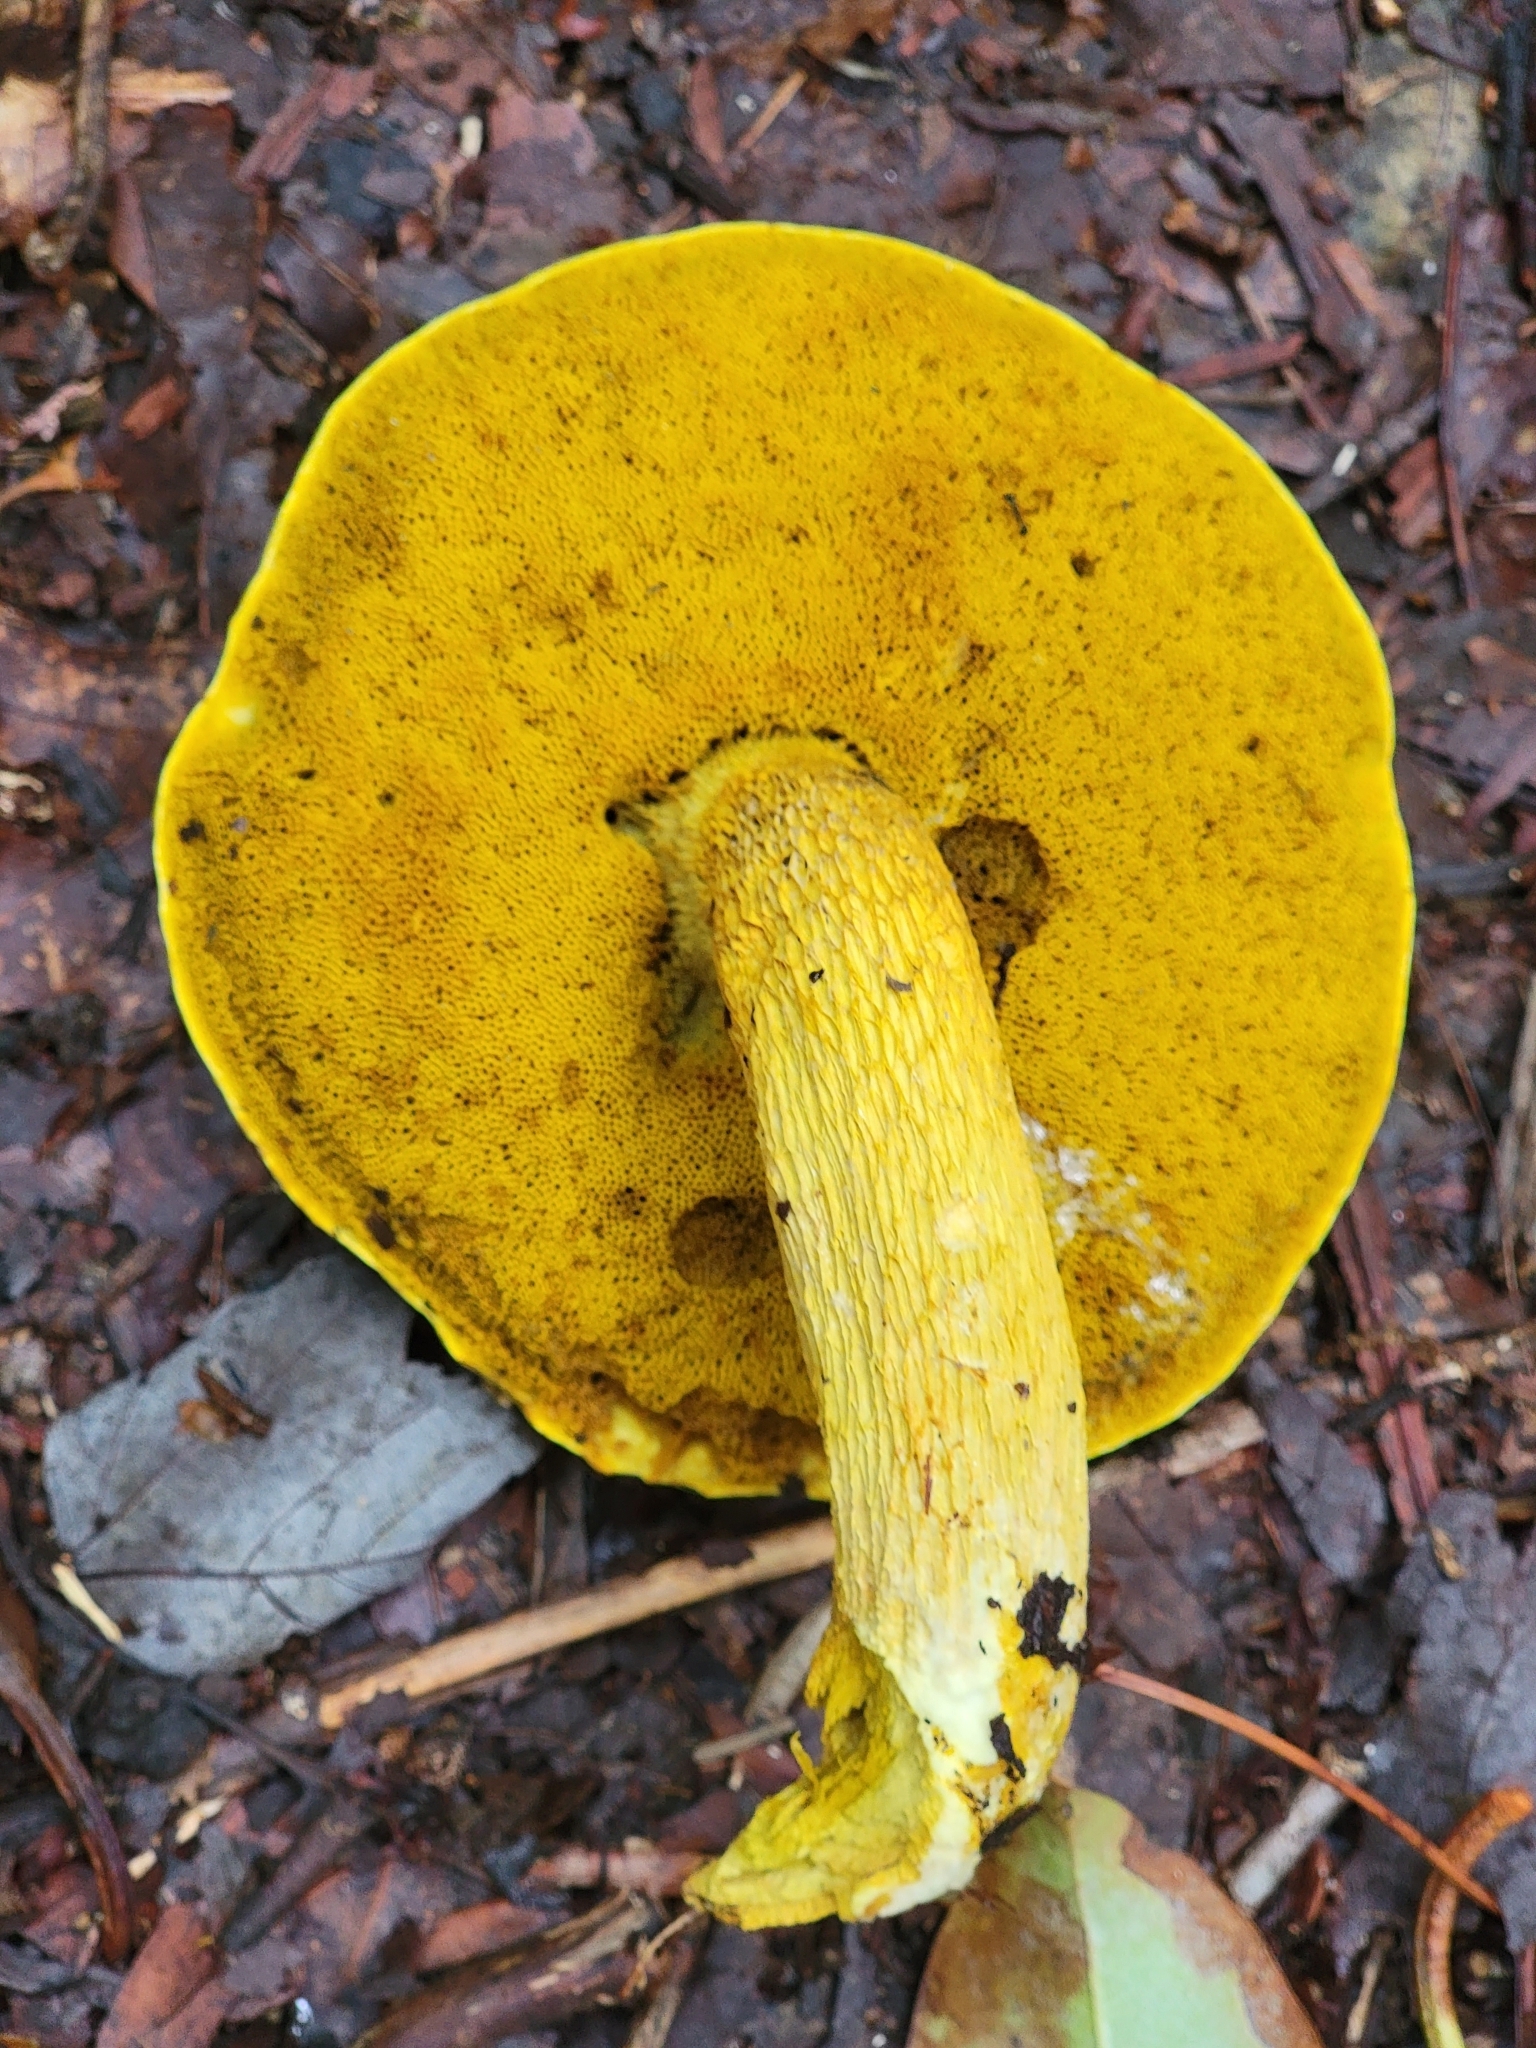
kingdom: Fungi
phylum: Basidiomycota
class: Agaricomycetes
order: Boletales
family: Boletaceae
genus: Retiboletus
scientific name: Retiboletus ornatipes
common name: Ornate-stalked bolete
